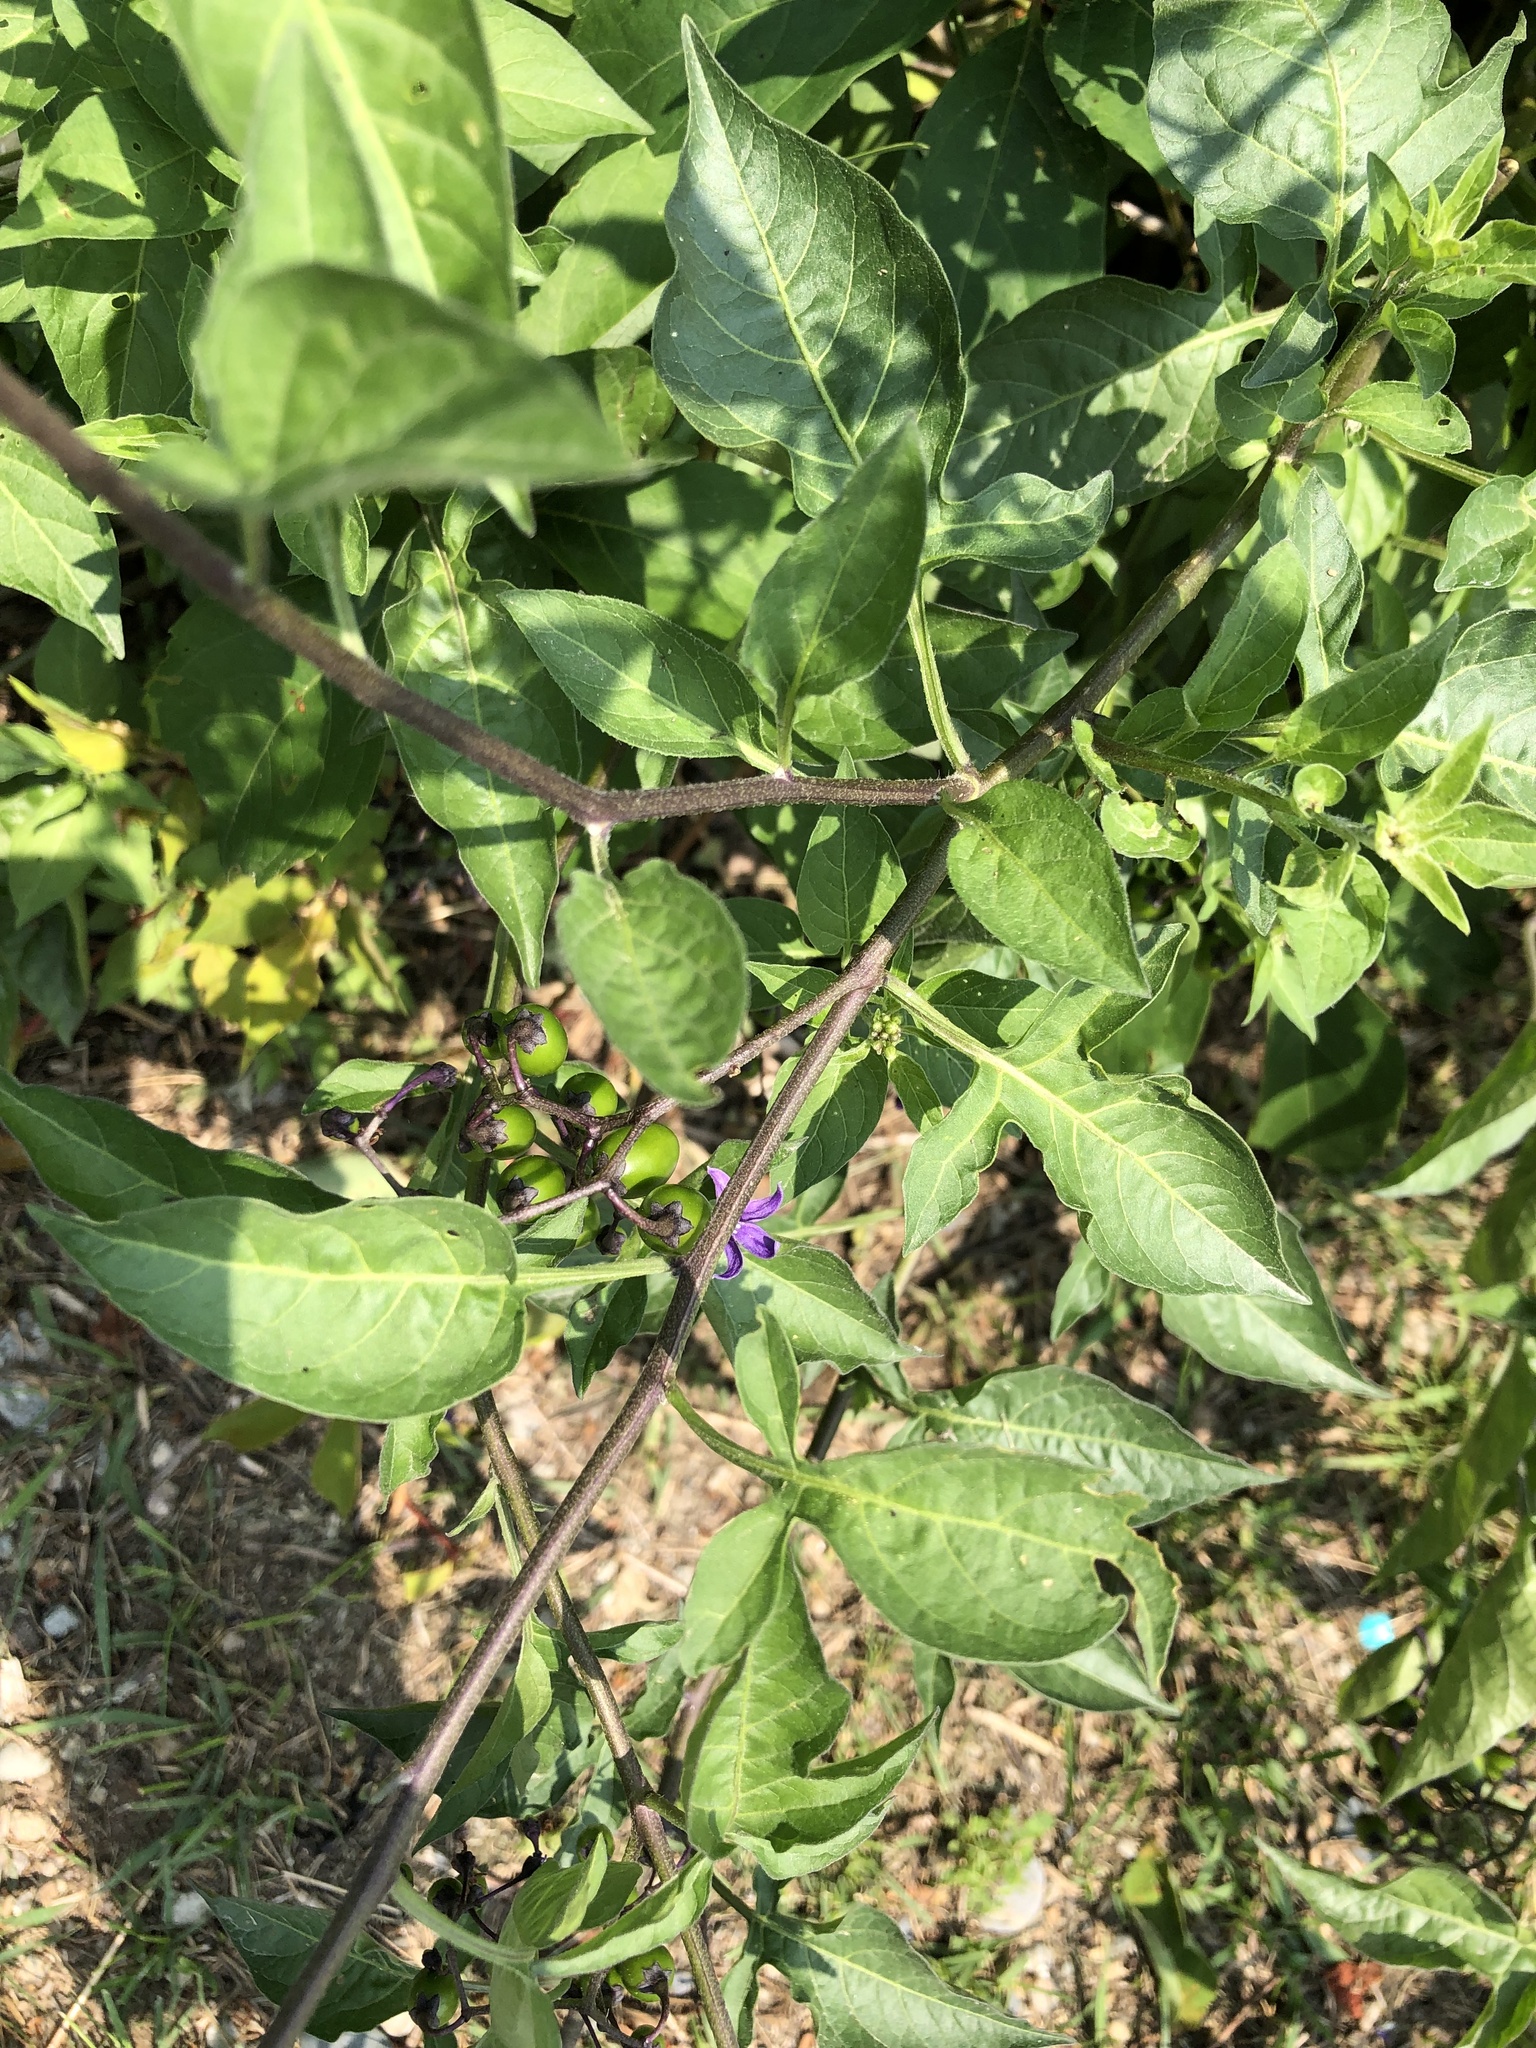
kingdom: Plantae
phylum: Tracheophyta
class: Magnoliopsida
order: Solanales
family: Solanaceae
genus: Solanum
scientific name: Solanum dulcamara
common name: Climbing nightshade
